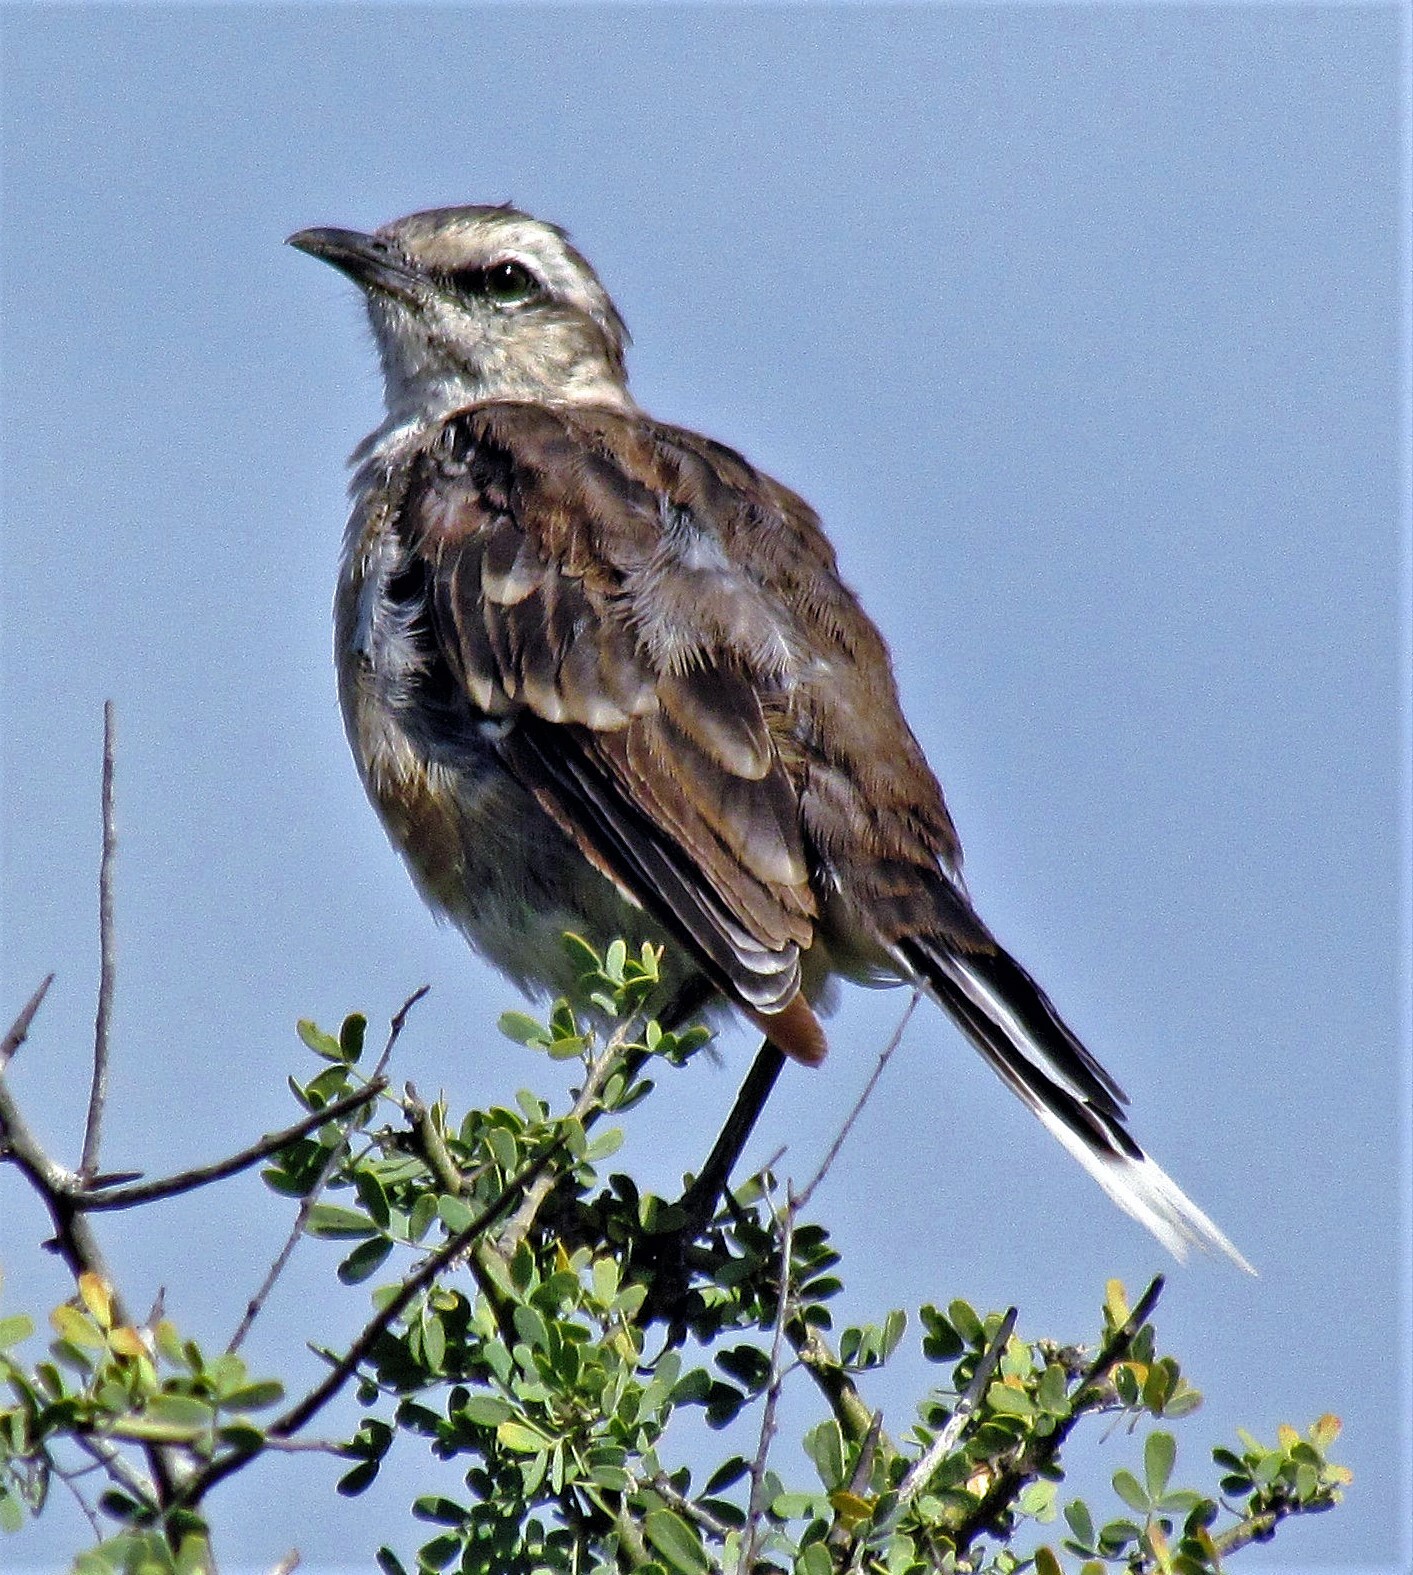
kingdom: Animalia
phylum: Chordata
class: Aves
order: Passeriformes
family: Mimidae
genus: Mimus
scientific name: Mimus saturninus
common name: Chalk-browed mockingbird
